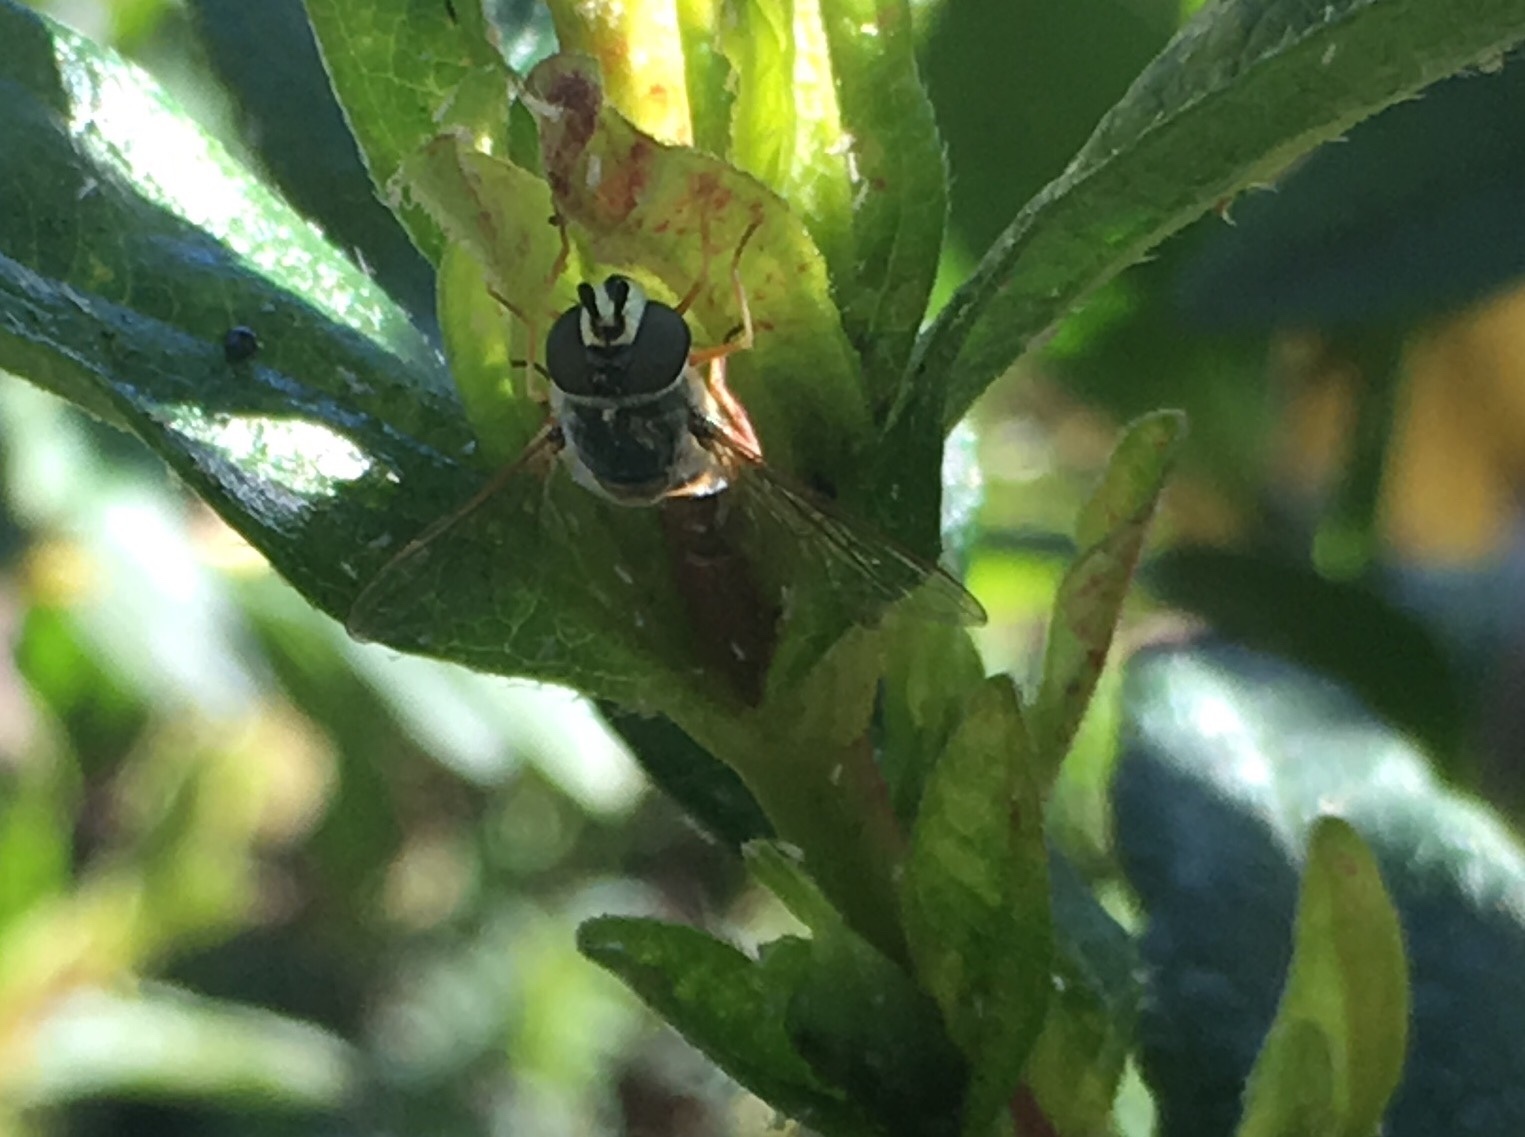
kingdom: Animalia
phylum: Arthropoda
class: Insecta
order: Diptera
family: Syrphidae
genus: Eupeodes
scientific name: Eupeodes volucris
